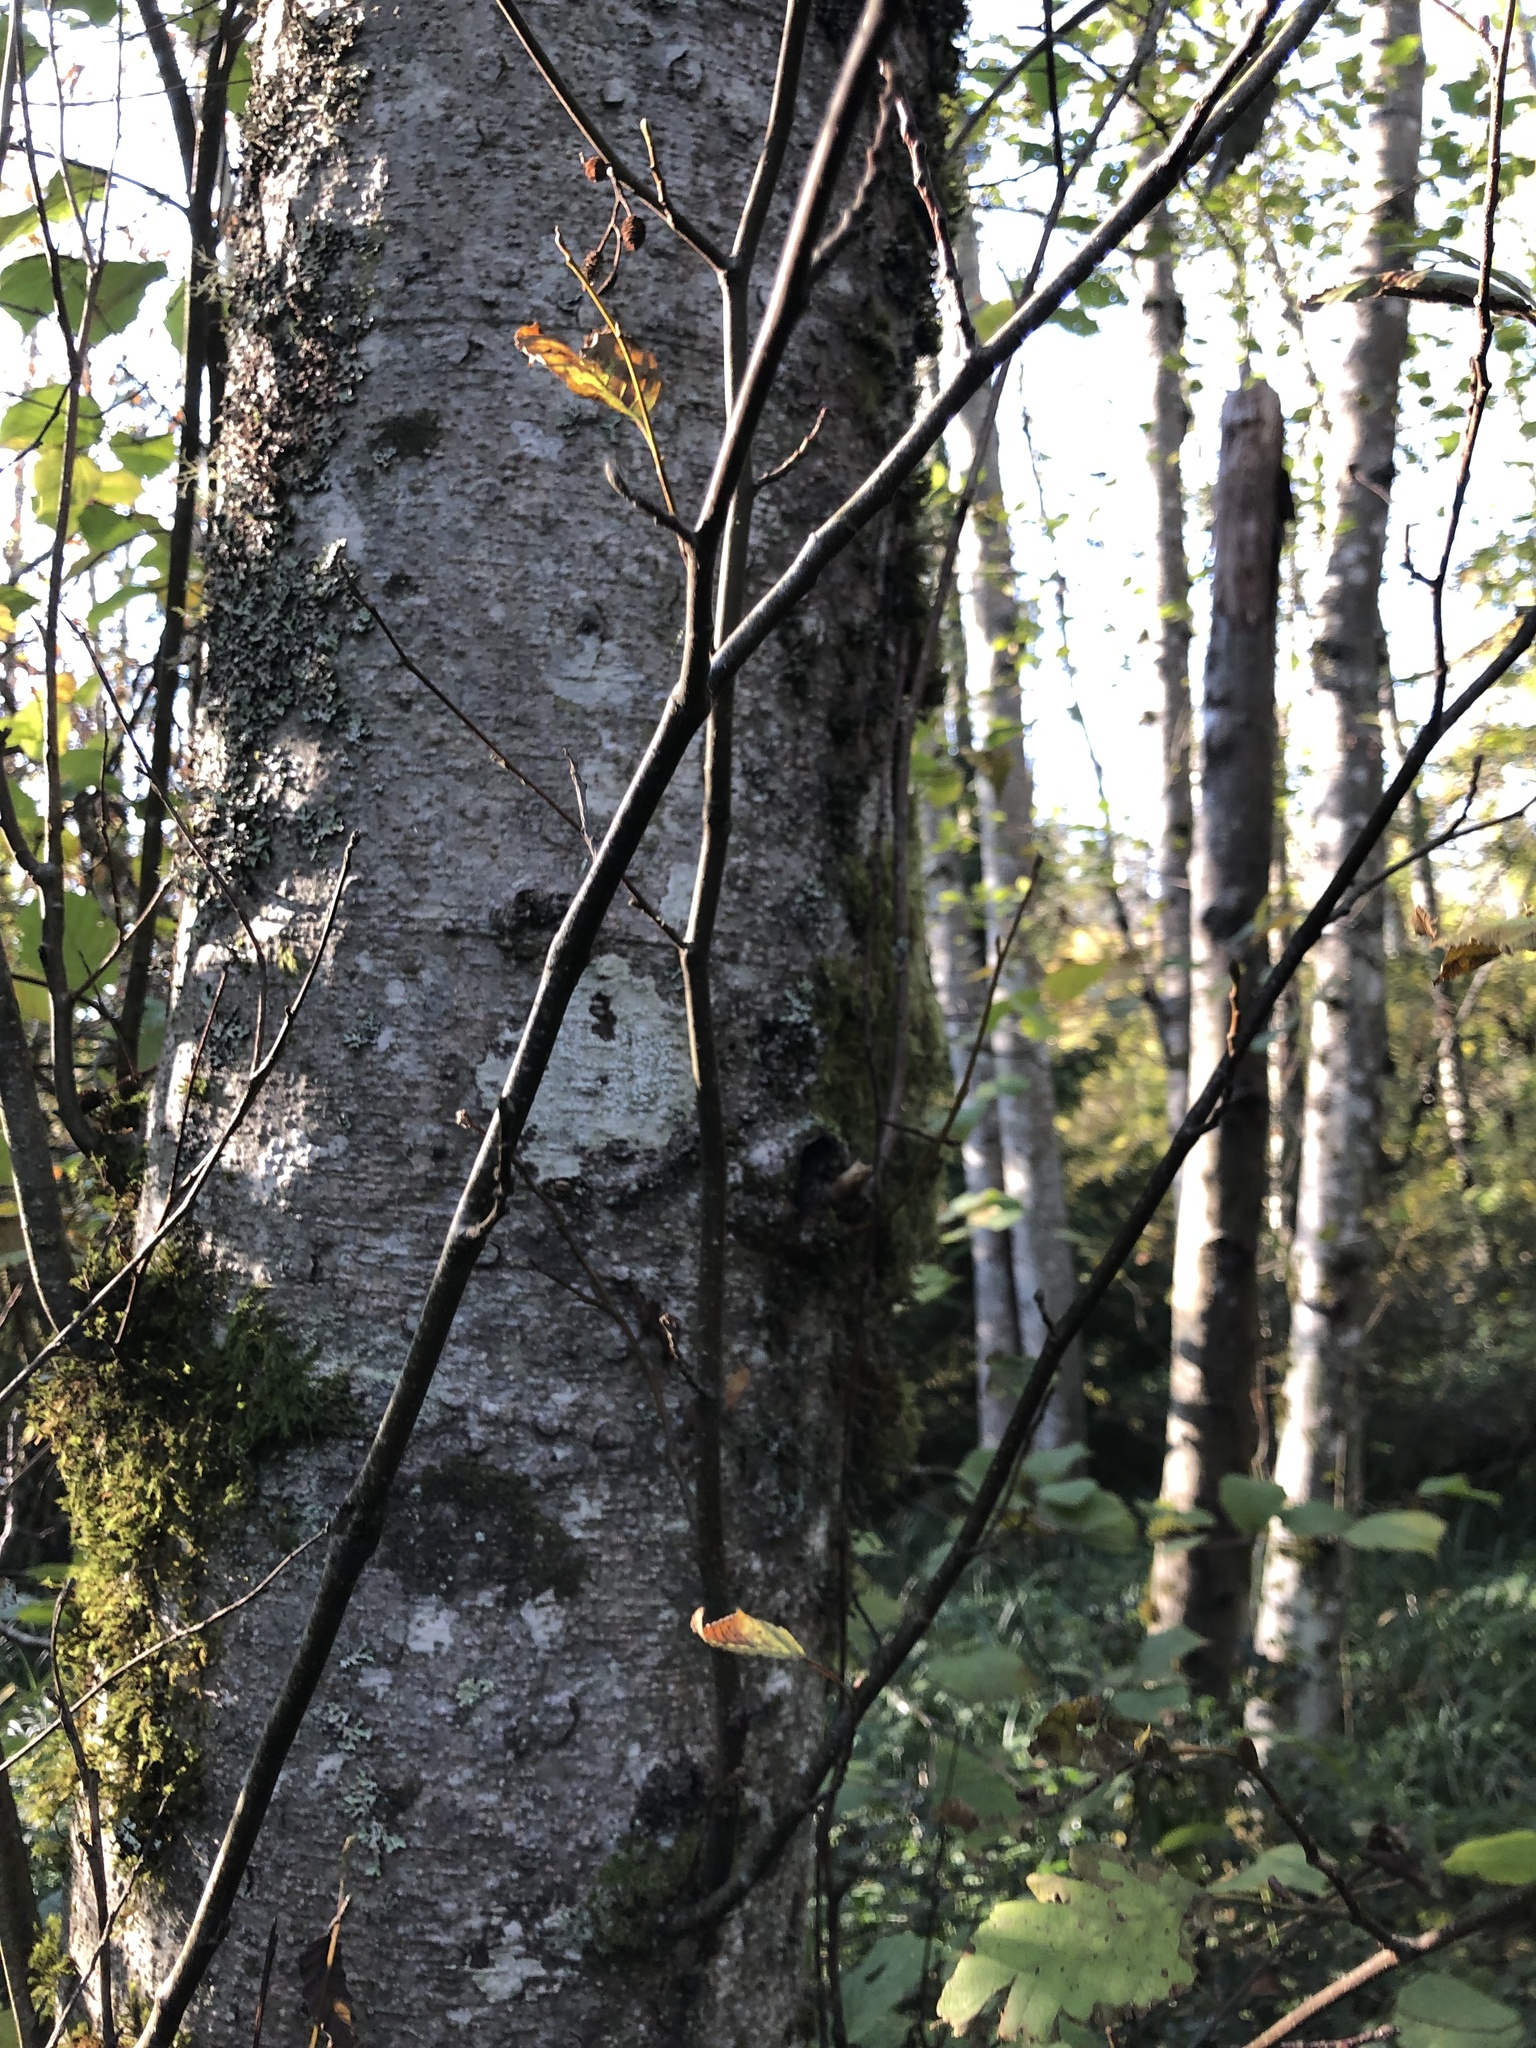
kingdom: Plantae
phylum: Tracheophyta
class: Magnoliopsida
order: Fagales
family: Betulaceae
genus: Alnus
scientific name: Alnus rubra
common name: Red alder
